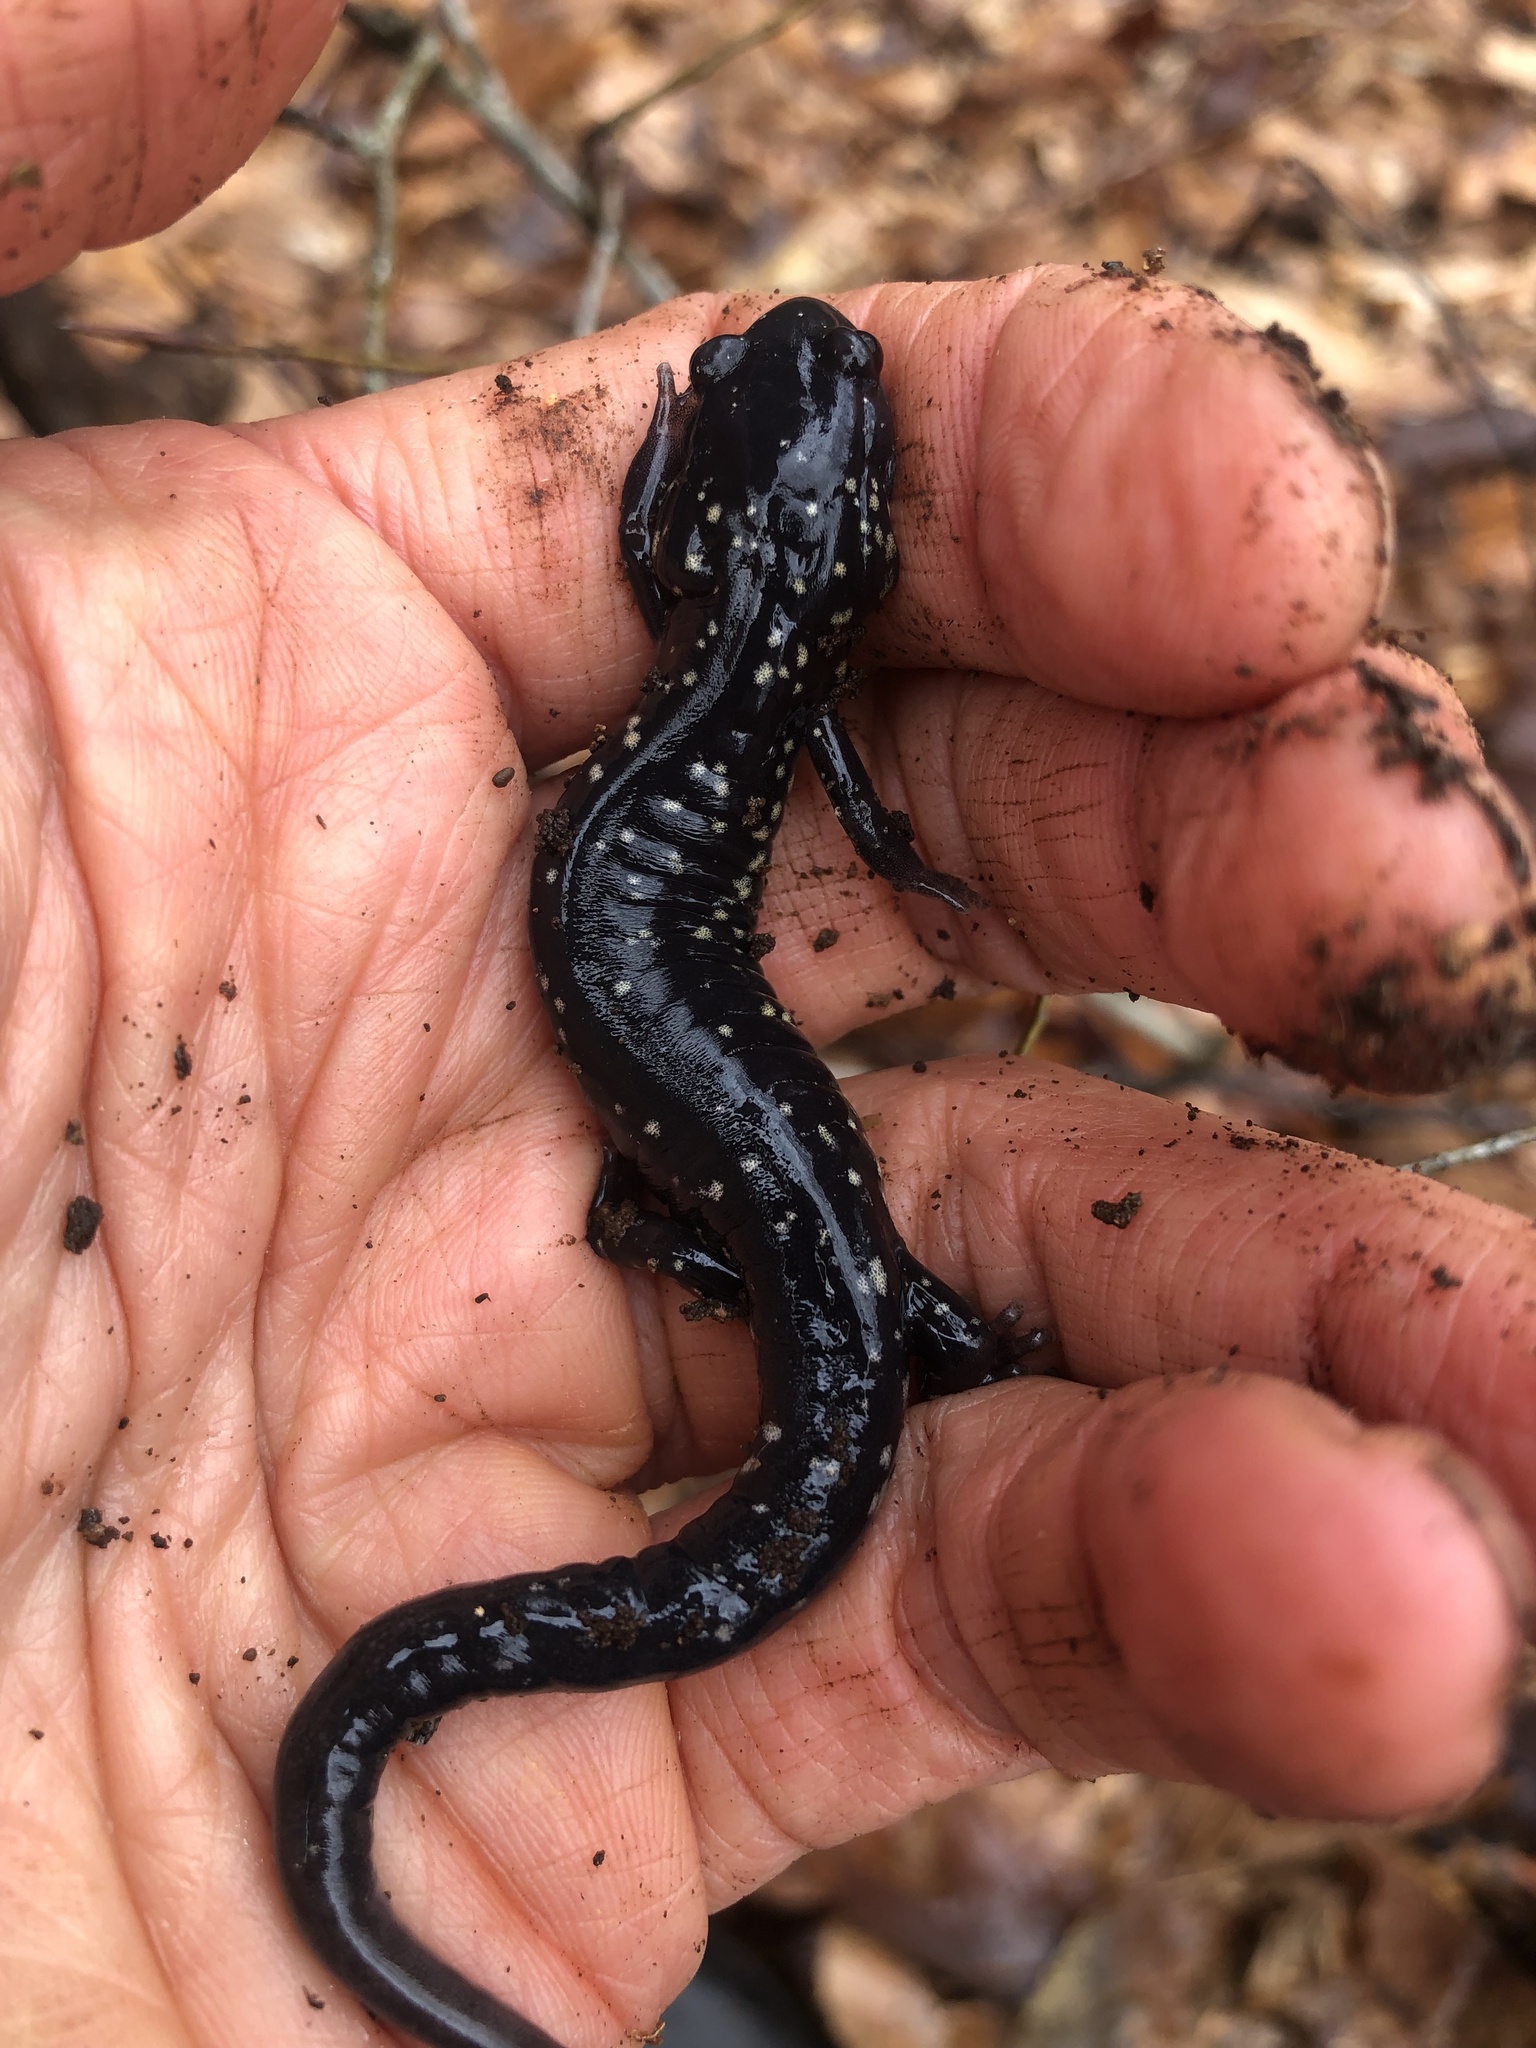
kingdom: Animalia
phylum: Chordata
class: Amphibia
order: Caudata
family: Plethodontidae
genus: Plethodon
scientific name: Plethodon cylindraceus
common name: White-spotted slimy salamander
